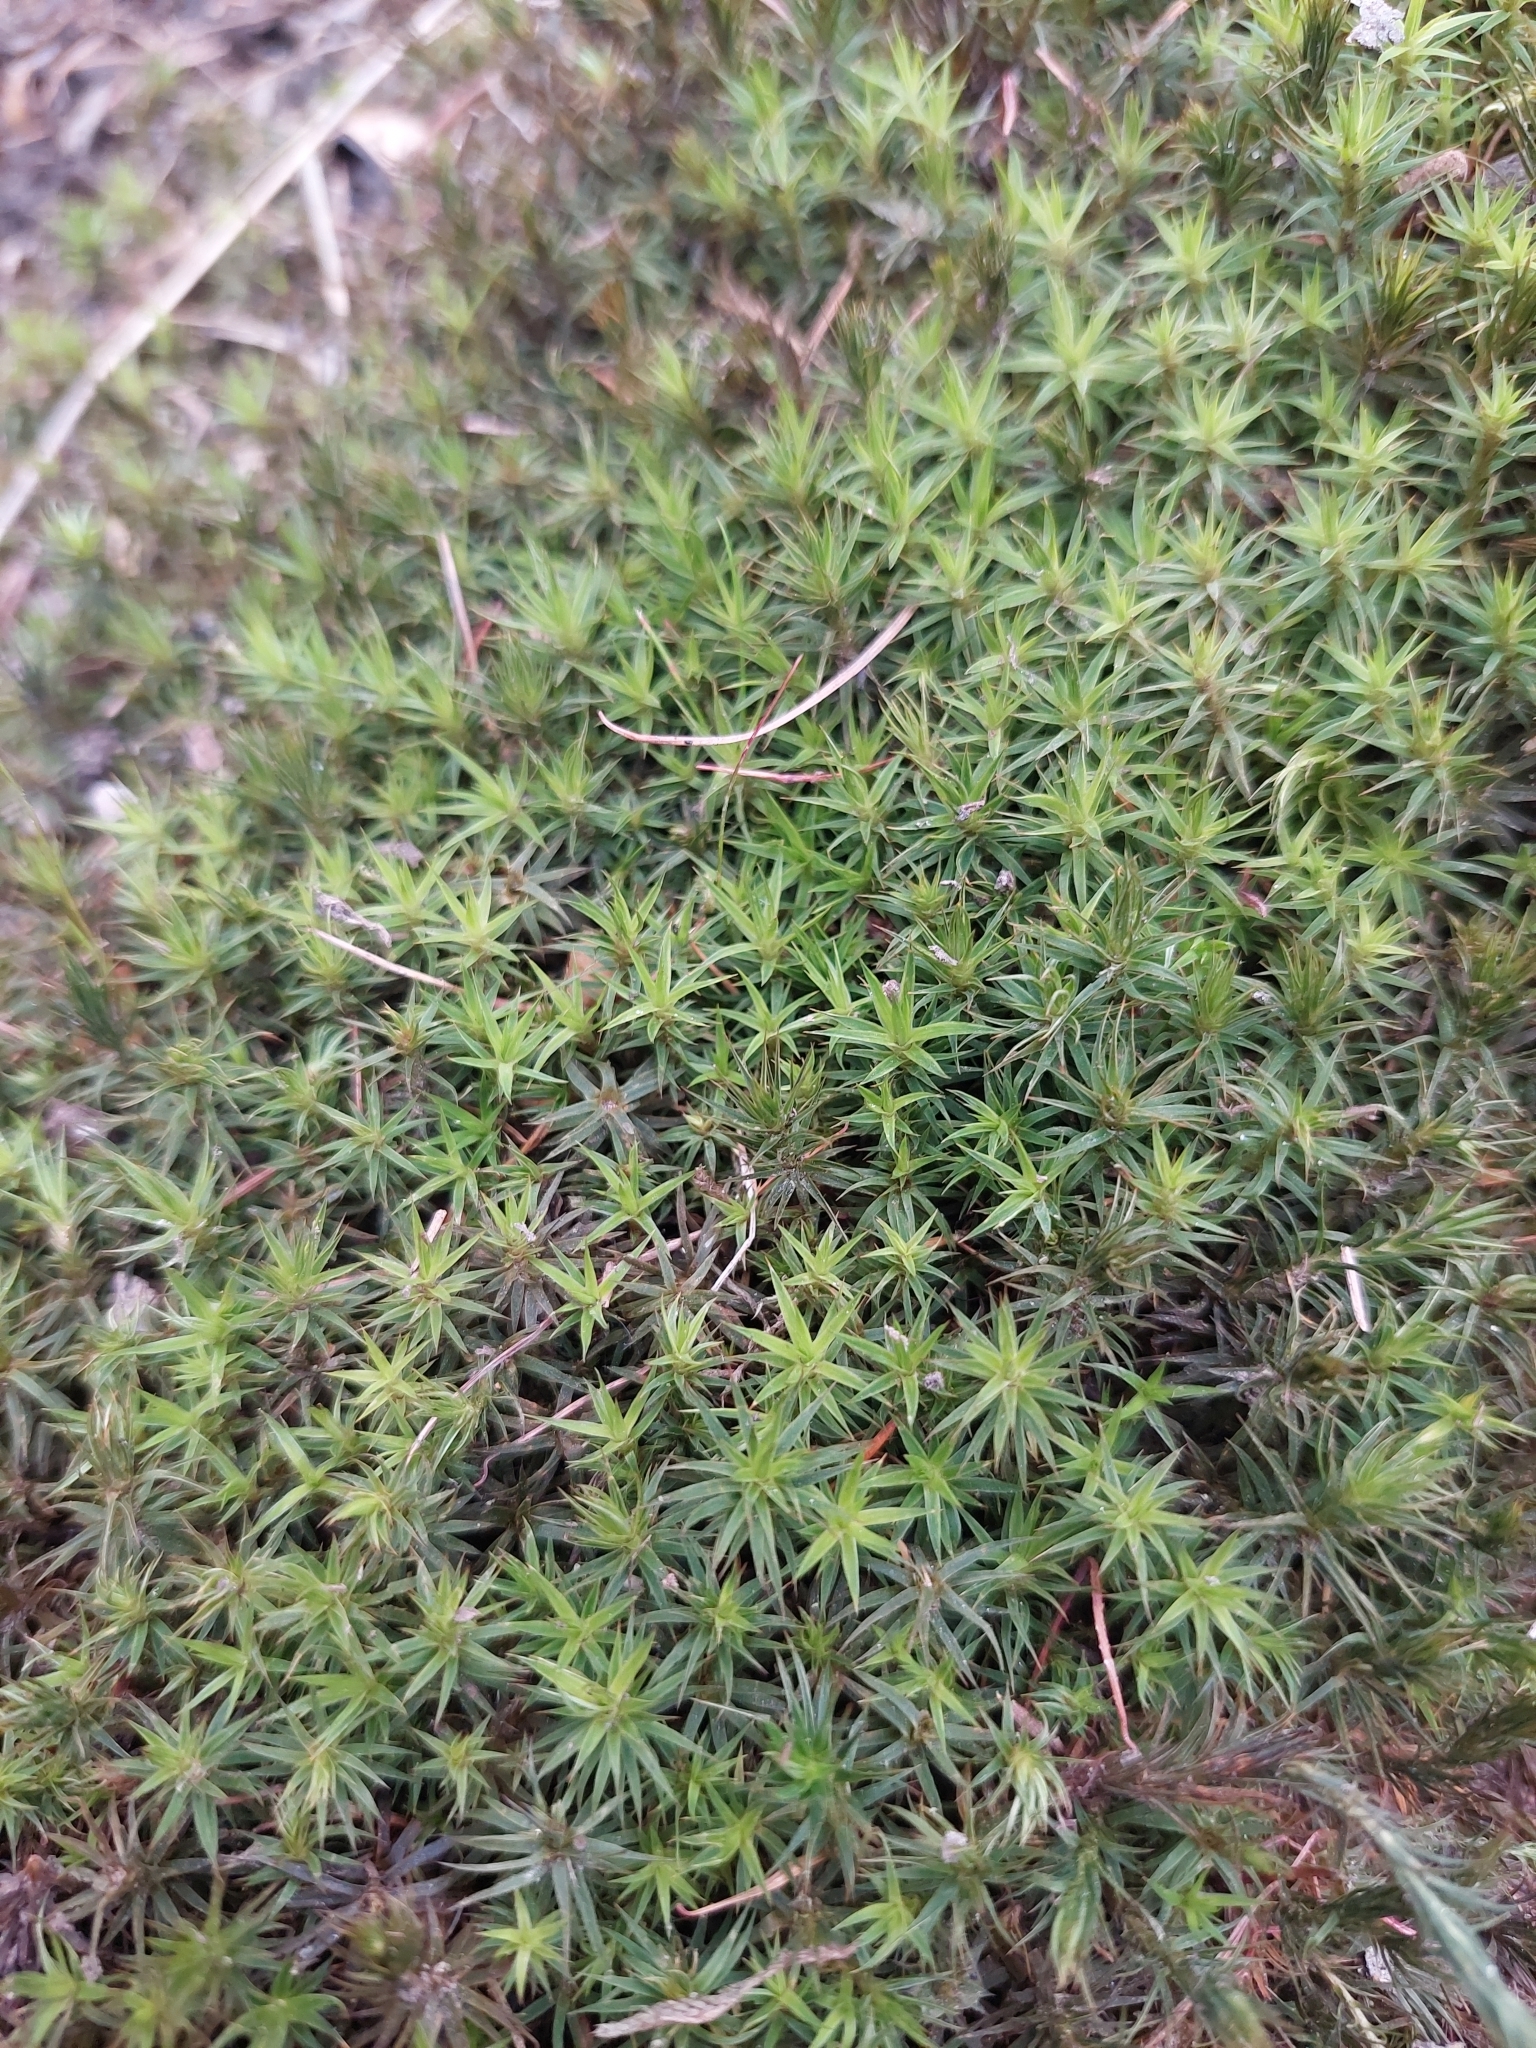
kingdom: Plantae
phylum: Bryophyta
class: Polytrichopsida
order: Polytrichales
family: Polytrichaceae
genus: Polytrichum
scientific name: Polytrichum formosum
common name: Bank haircap moss
